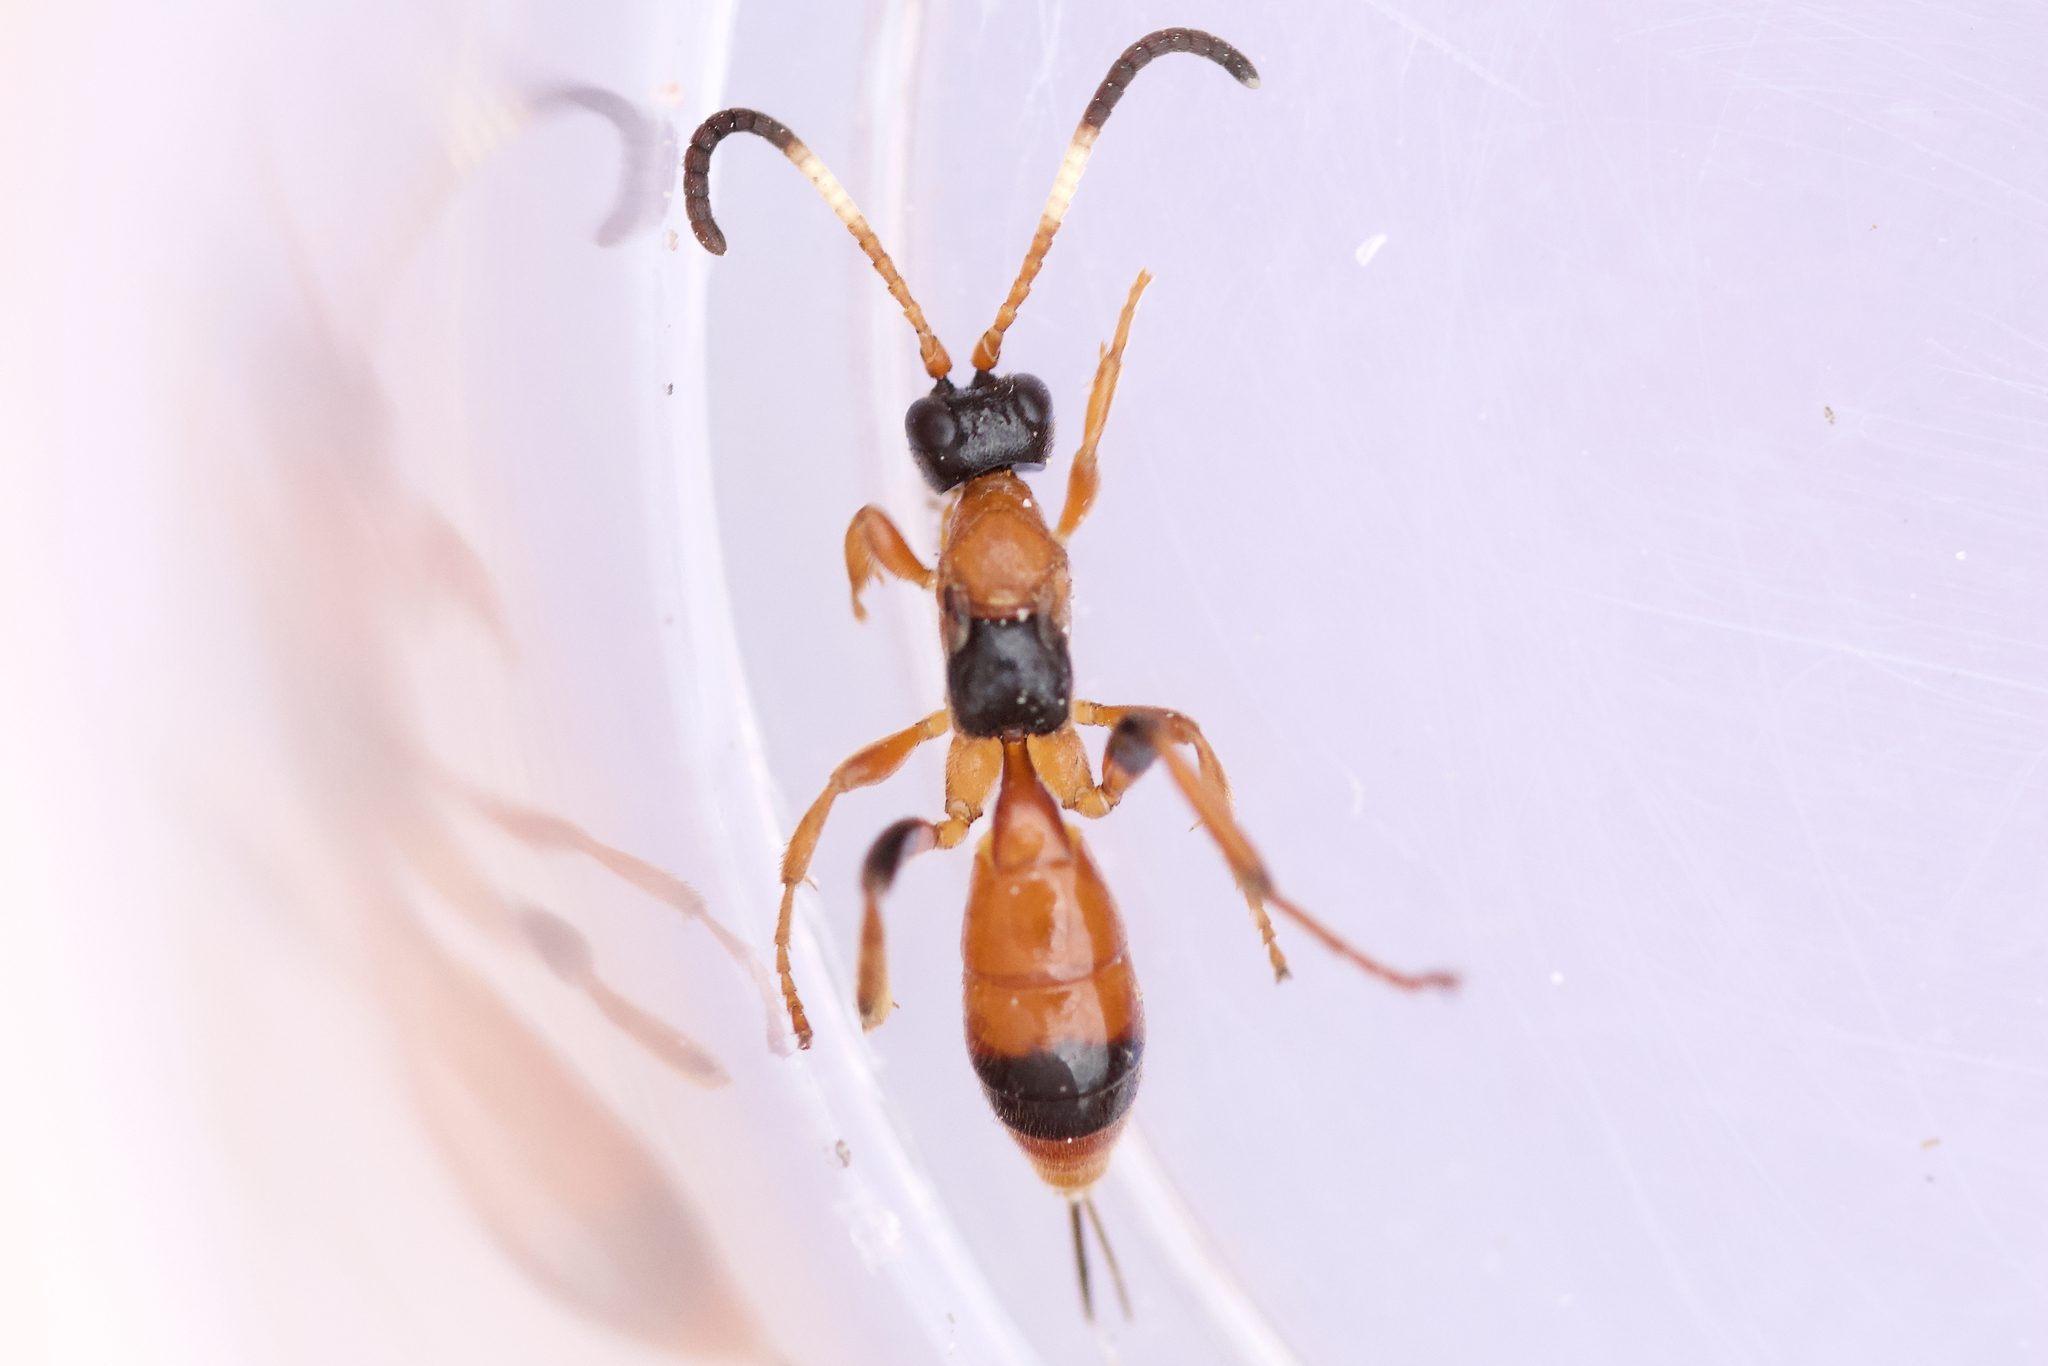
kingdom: Animalia
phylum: Arthropoda
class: Insecta
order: Hymenoptera
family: Ichneumonidae
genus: Aptesis
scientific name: Aptesis nigrocincta
